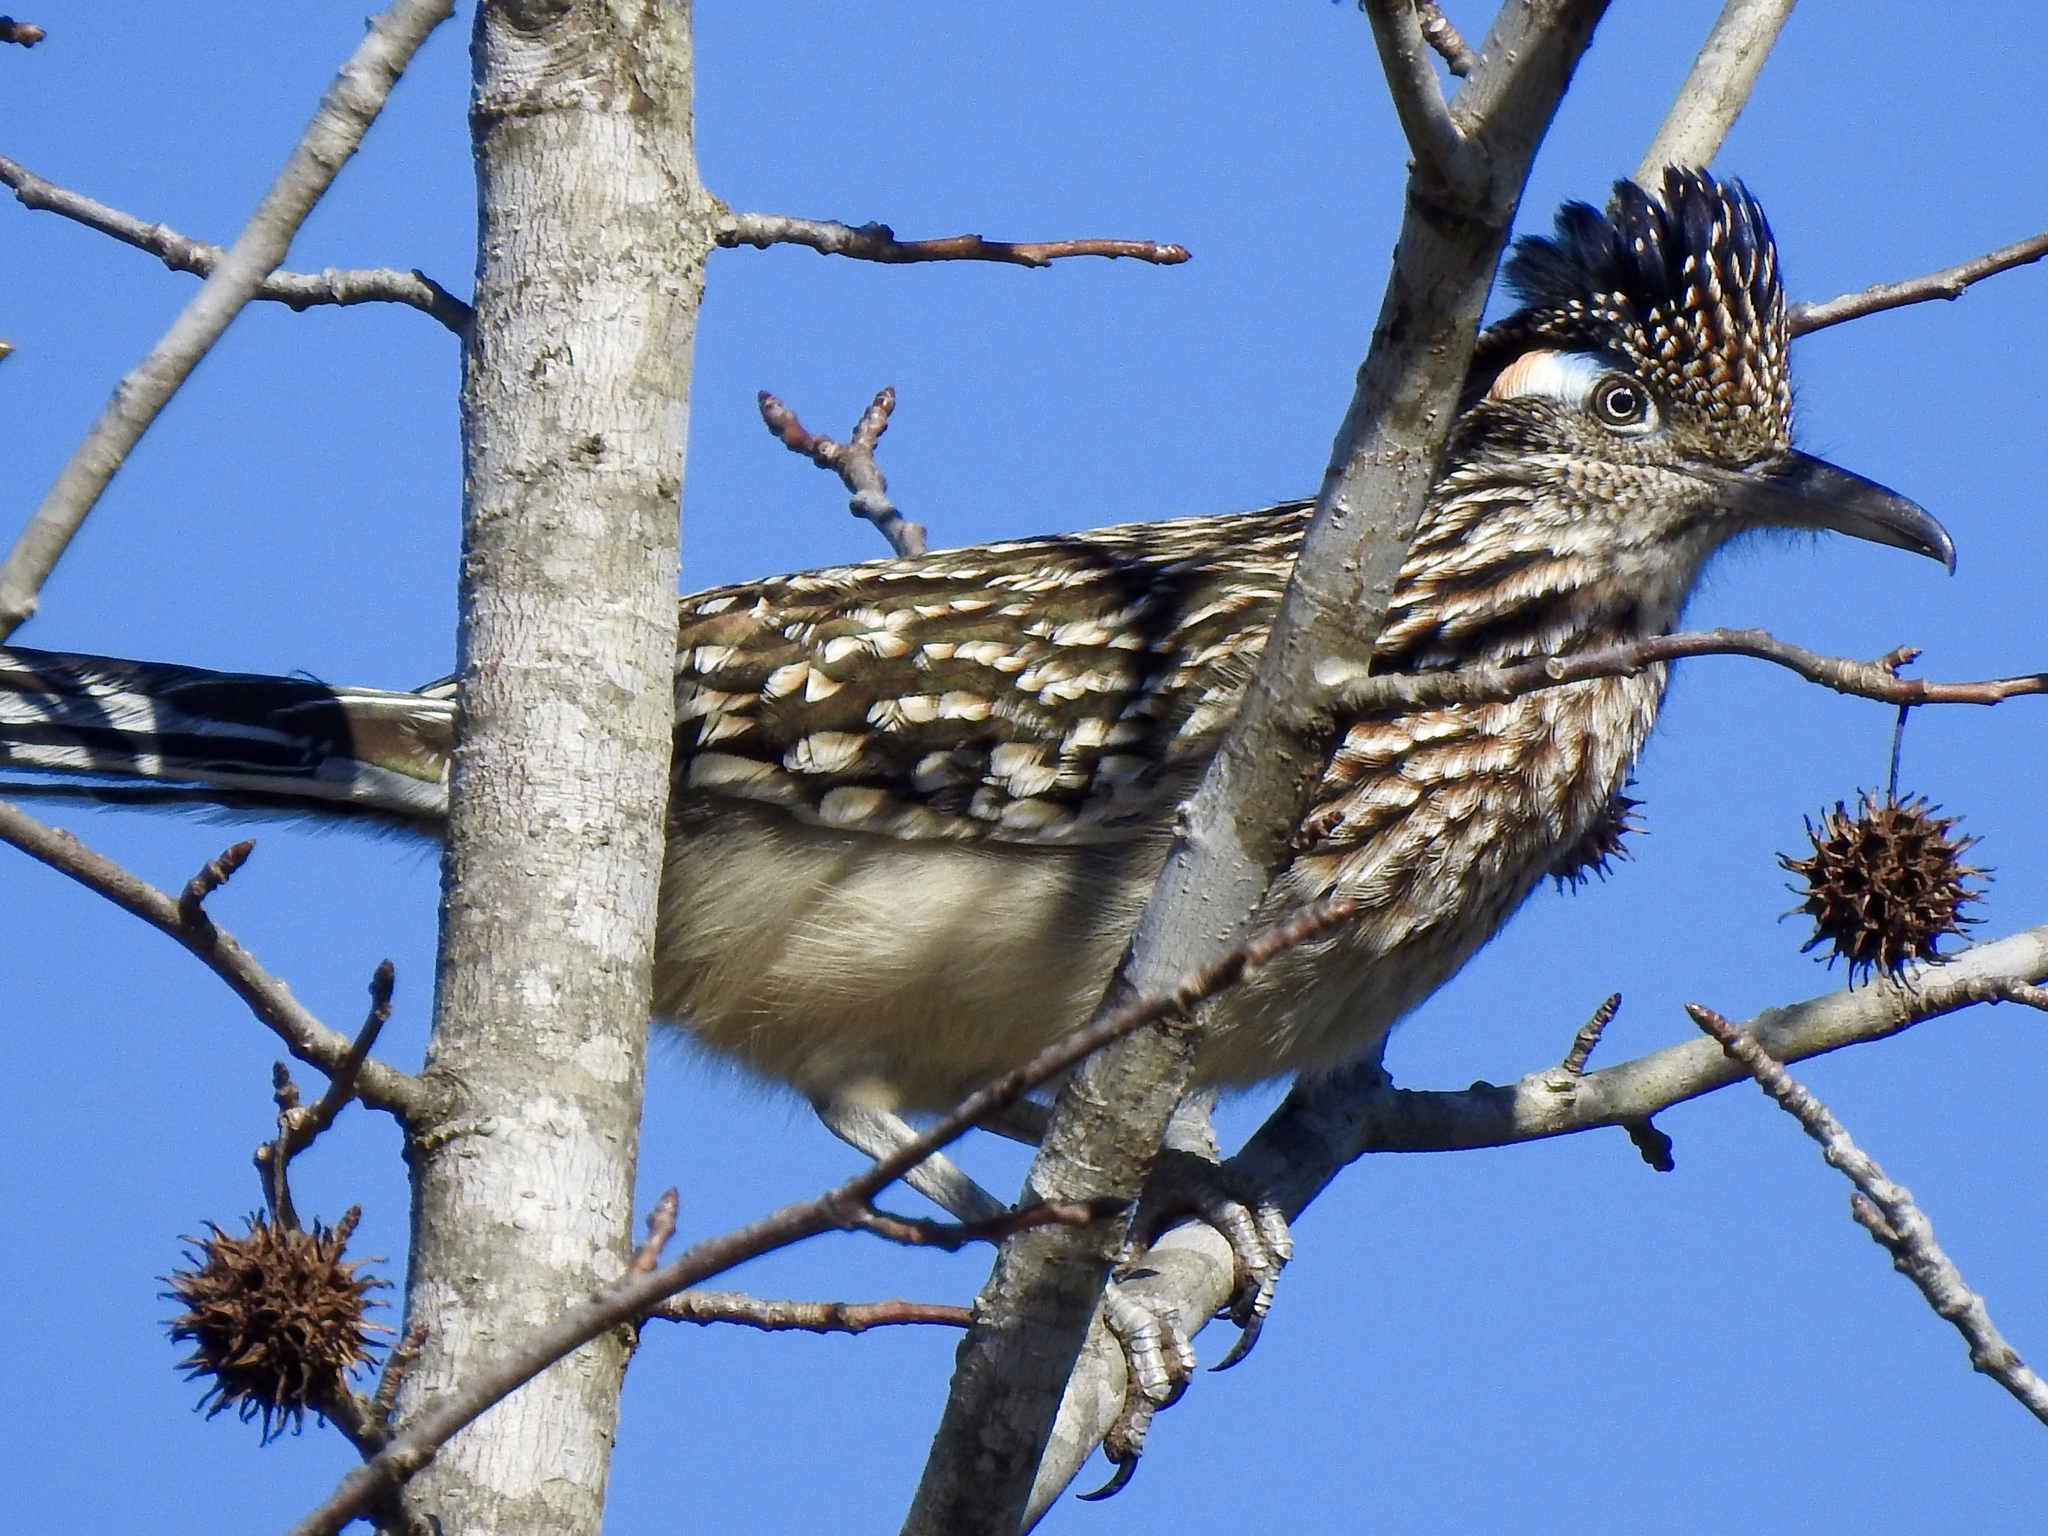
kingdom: Animalia
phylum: Chordata
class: Aves
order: Cuculiformes
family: Cuculidae
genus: Geococcyx
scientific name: Geococcyx californianus
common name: Greater roadrunner
